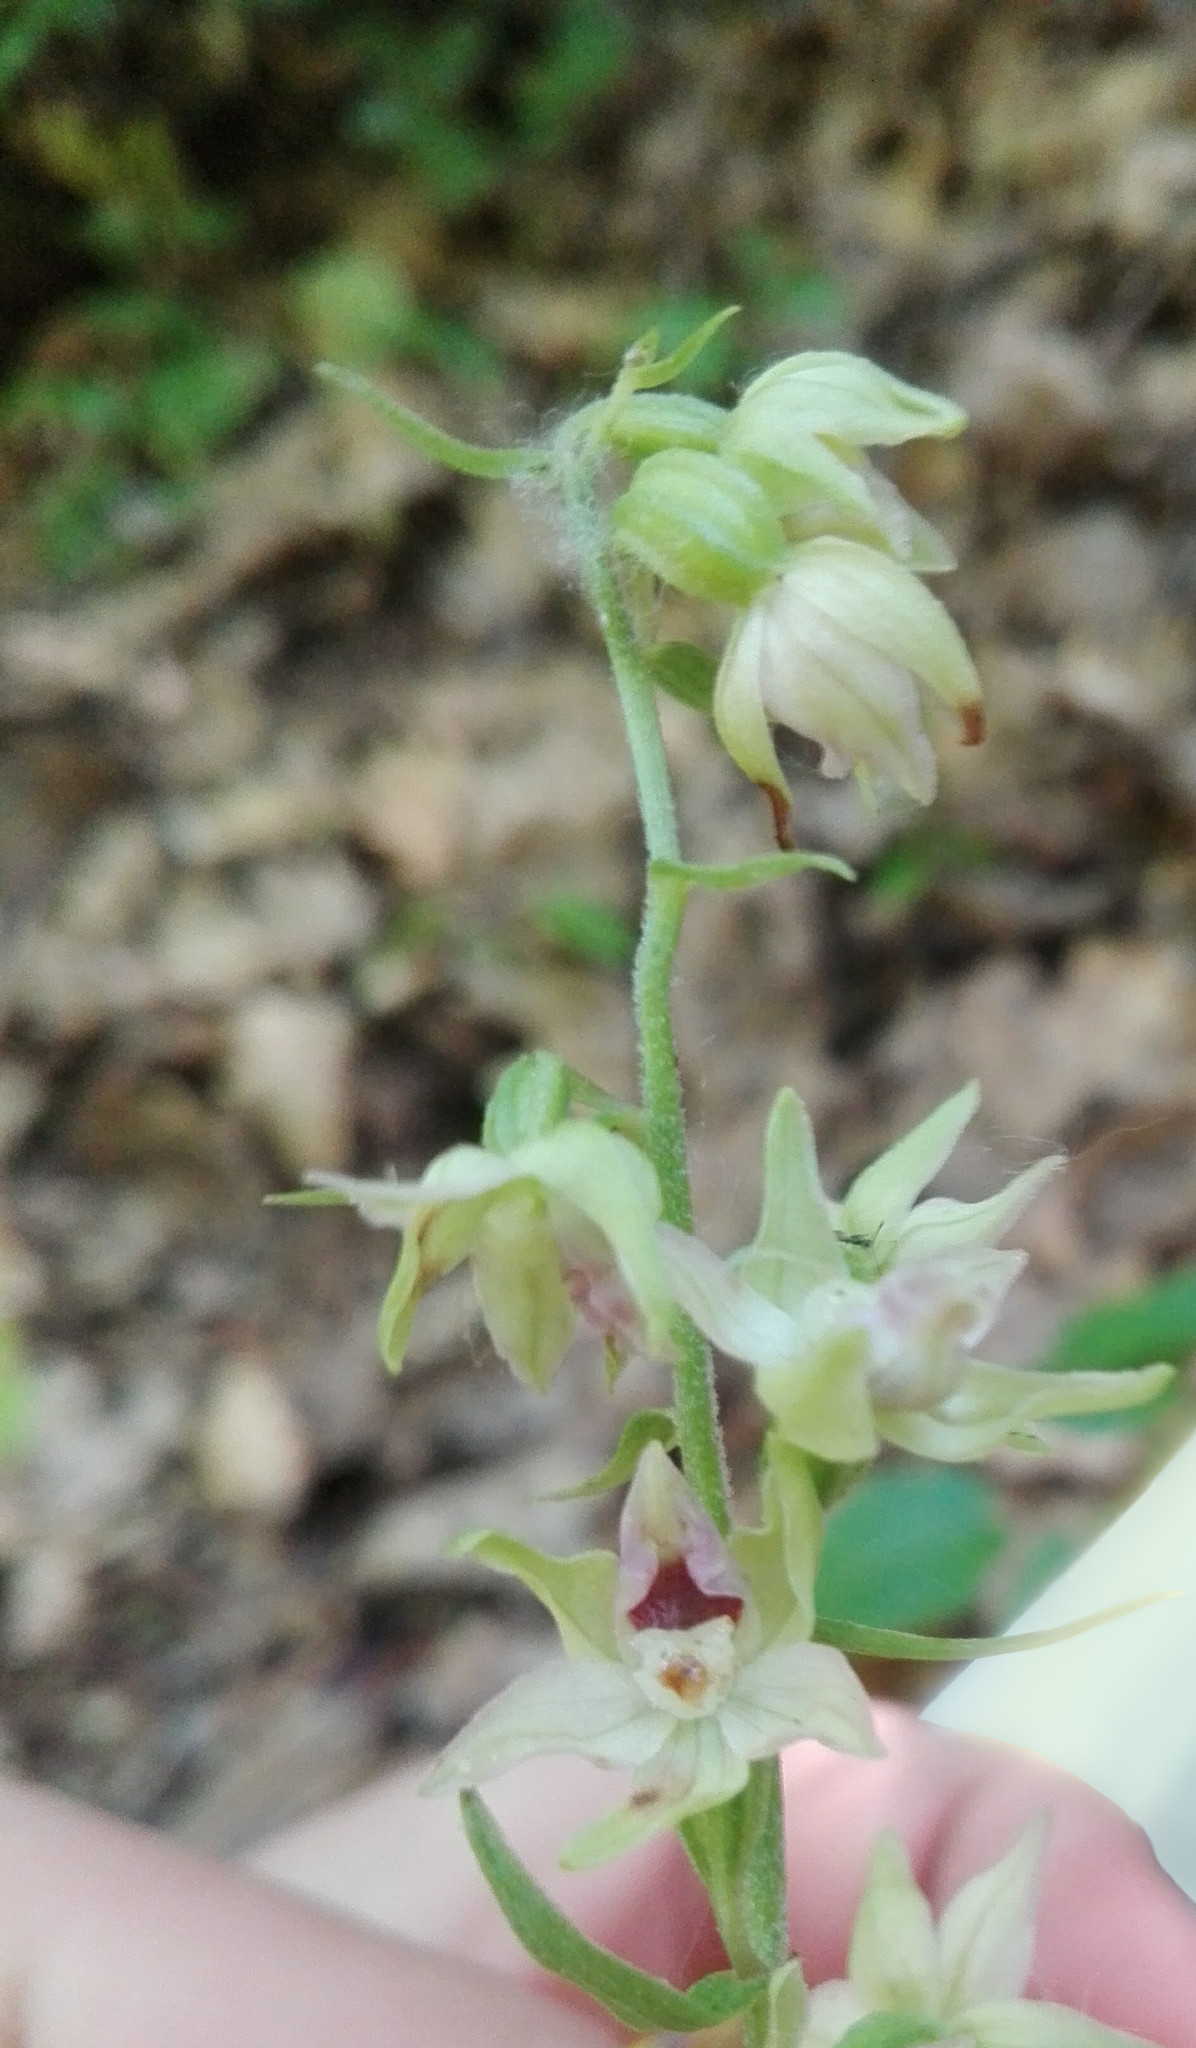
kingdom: Plantae
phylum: Tracheophyta
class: Liliopsida
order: Asparagales
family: Orchidaceae
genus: Epipactis
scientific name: Epipactis muelleri
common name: Mueller's epipactis
